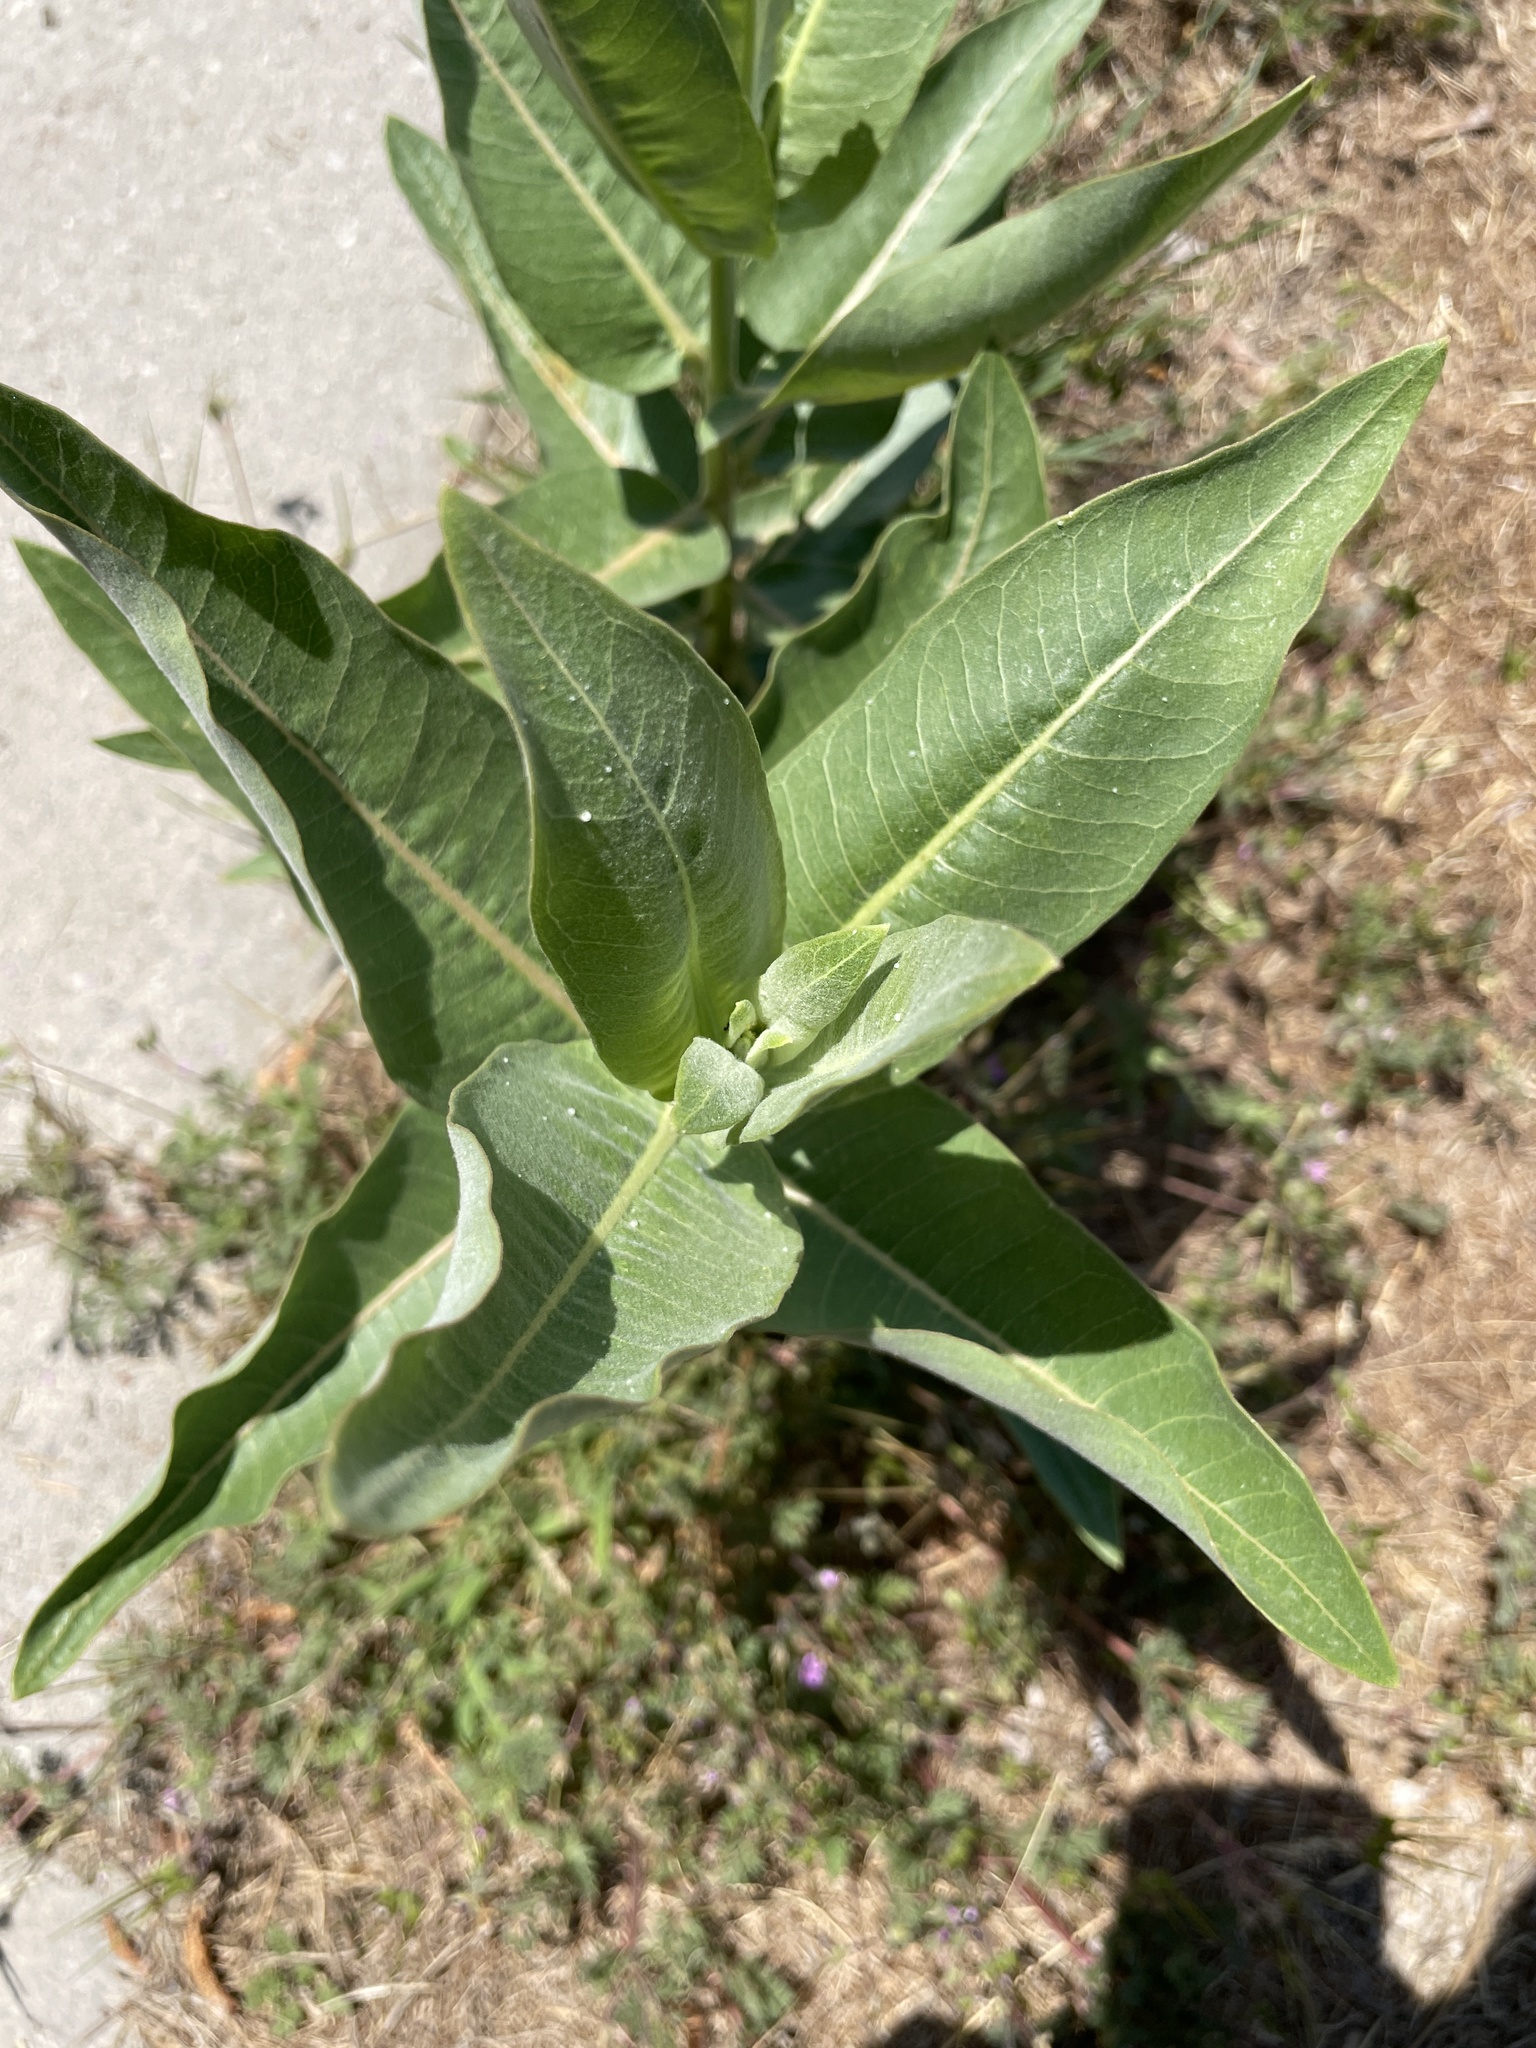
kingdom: Plantae
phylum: Tracheophyta
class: Magnoliopsida
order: Gentianales
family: Apocynaceae
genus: Asclepias
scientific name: Asclepias speciosa
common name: Showy milkweed
